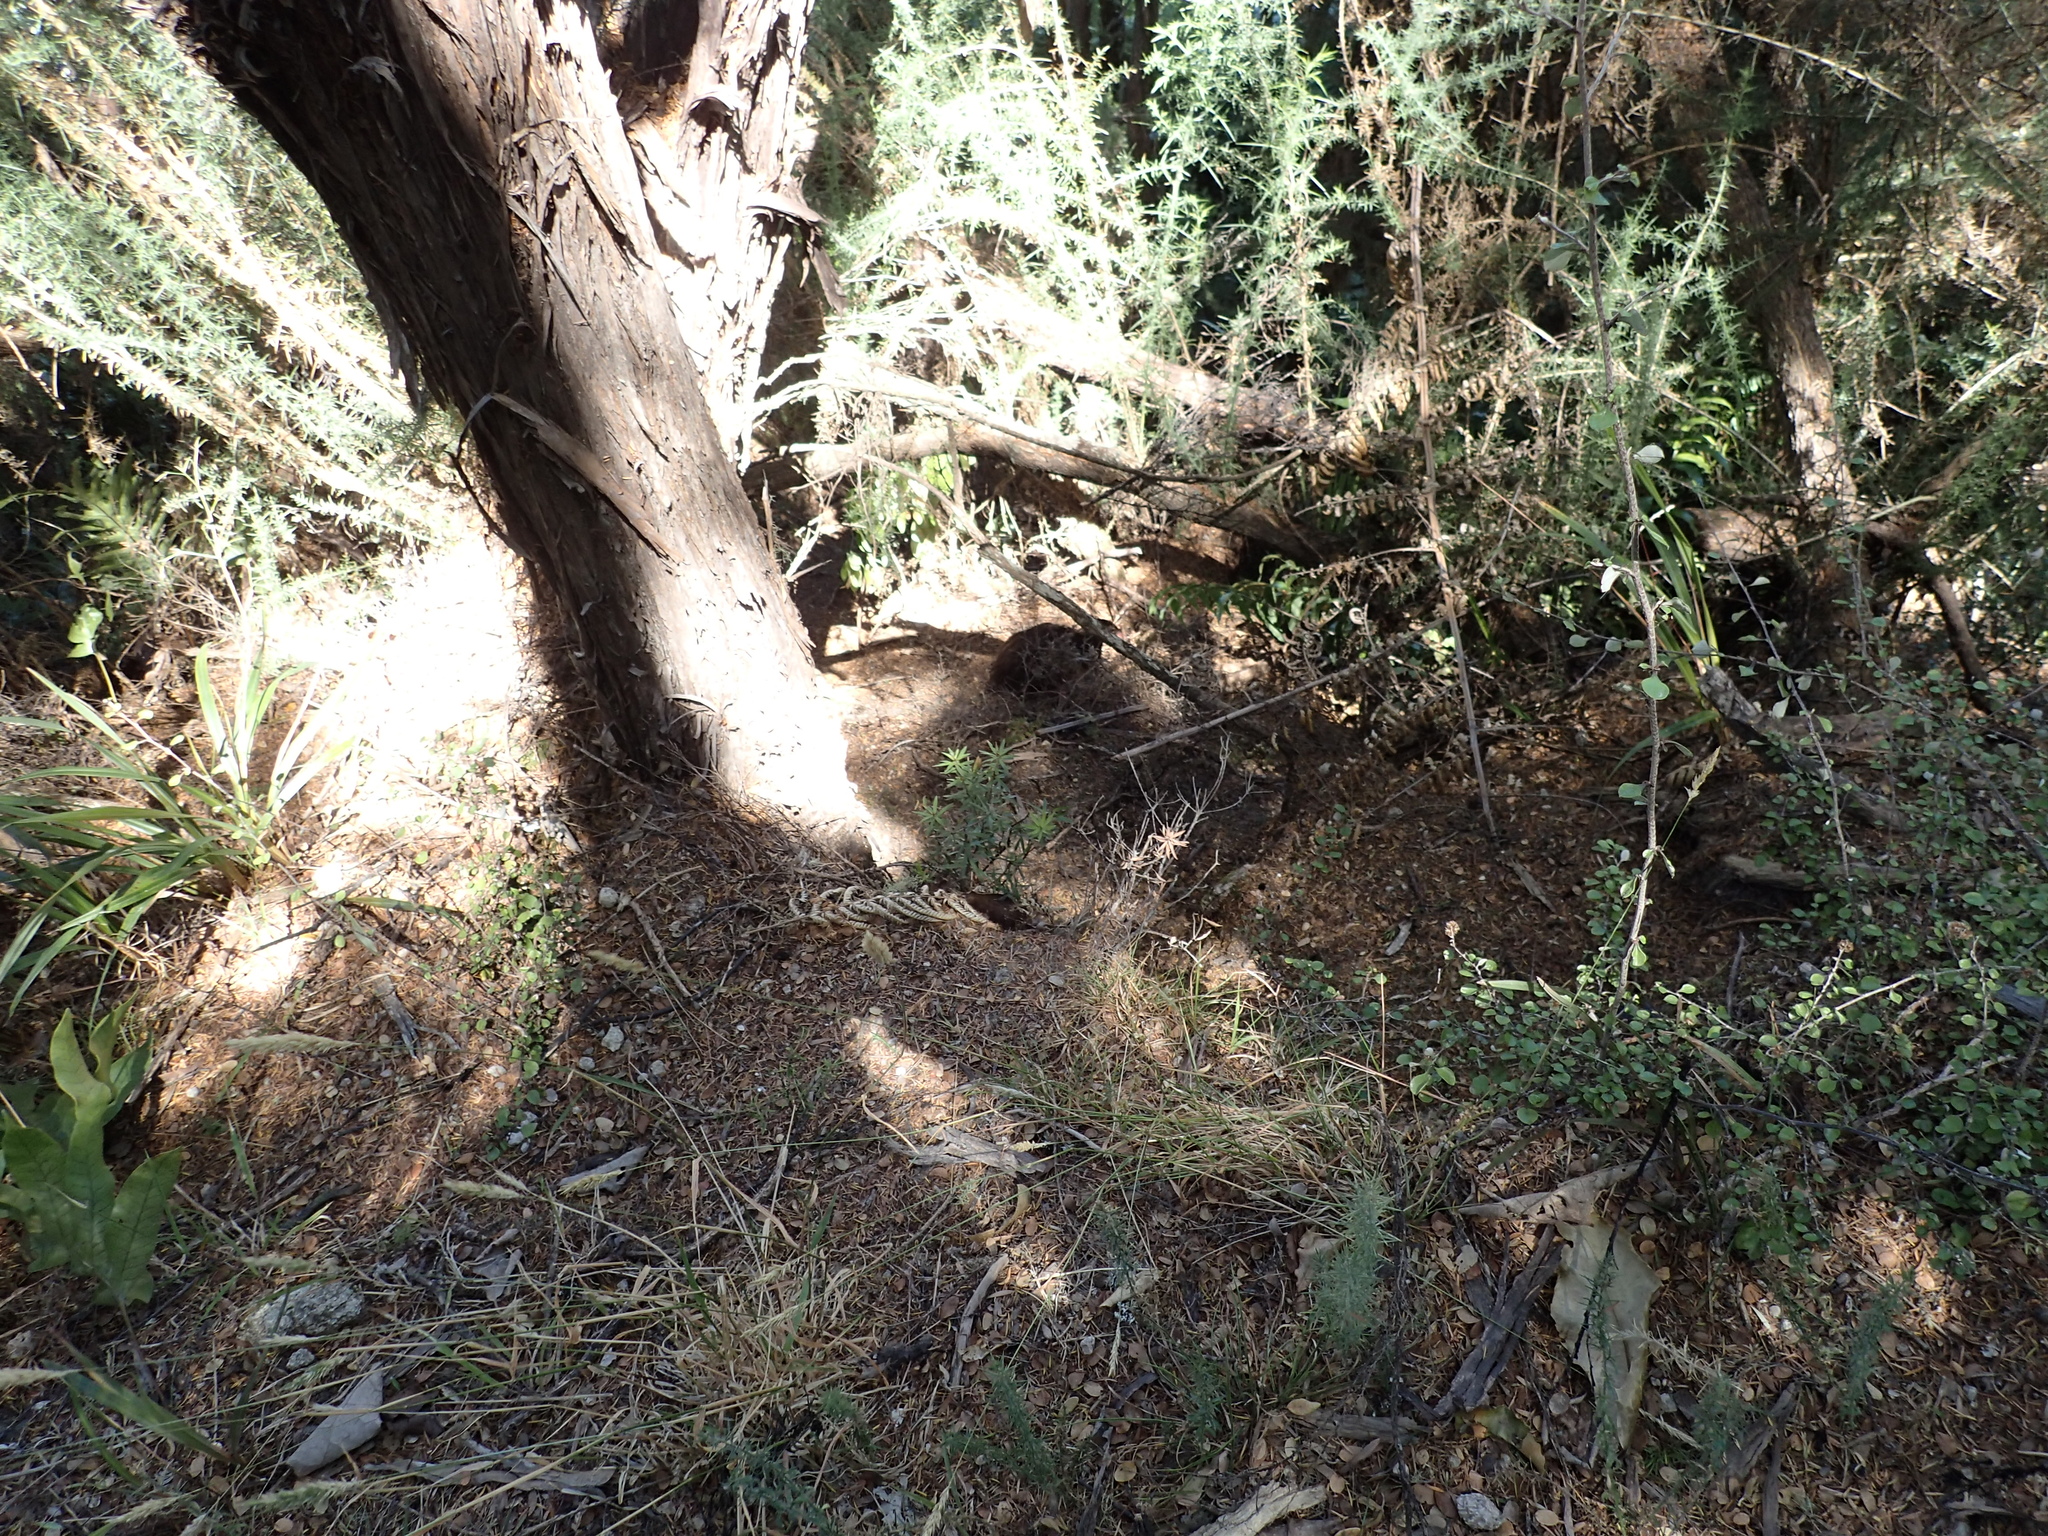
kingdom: Animalia
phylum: Chordata
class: Aves
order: Gruiformes
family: Rallidae
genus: Gallirallus
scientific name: Gallirallus australis
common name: Weka
